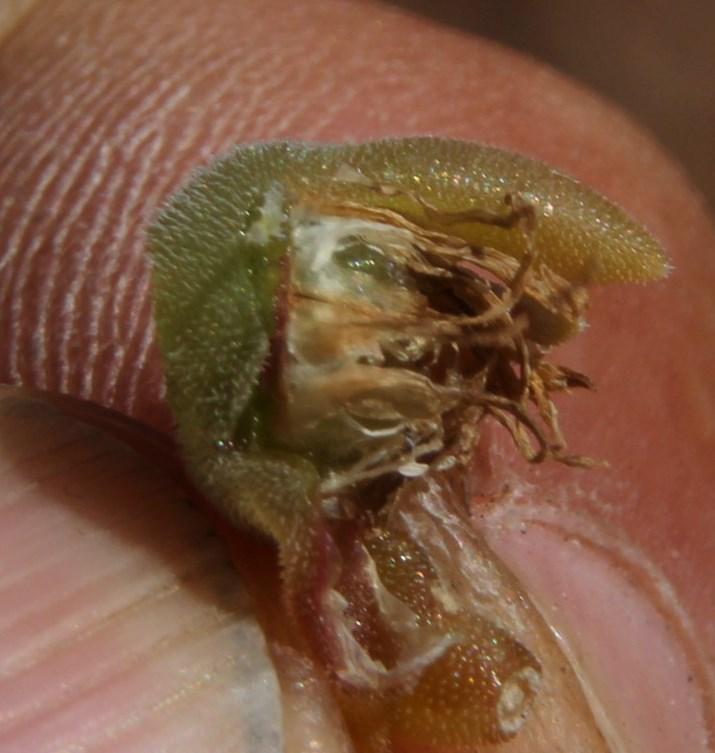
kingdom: Plantae
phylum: Tracheophyta
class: Magnoliopsida
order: Caryophyllales
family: Aizoaceae
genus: Delosperma
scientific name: Delosperma lootsbergense
